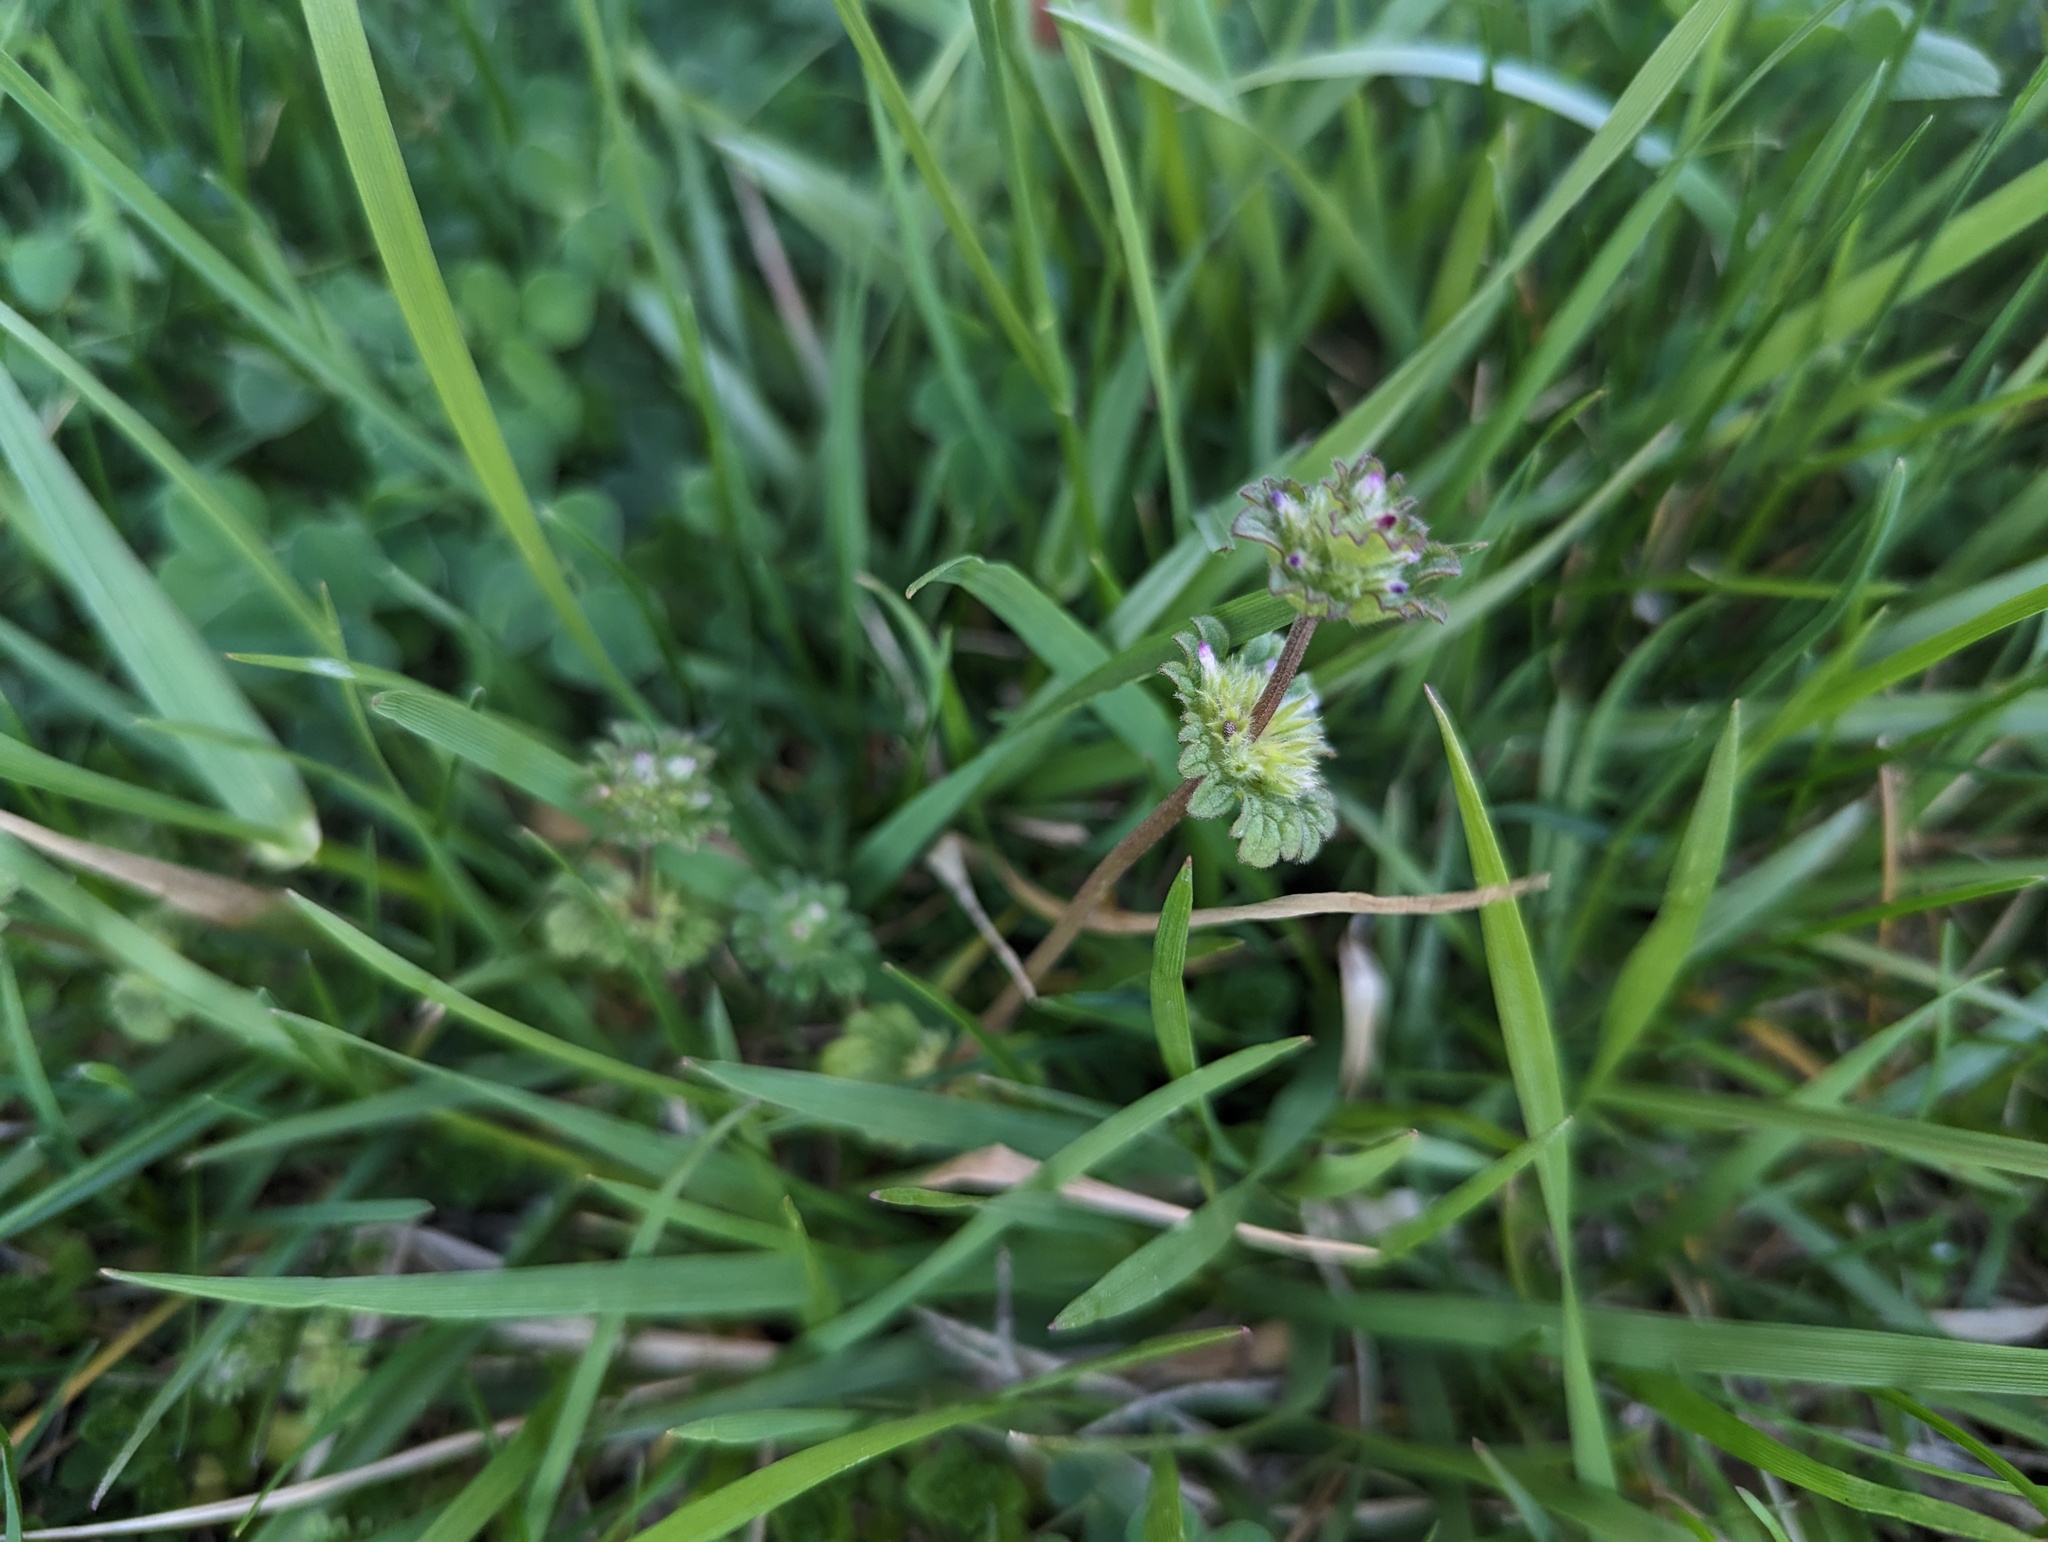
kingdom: Plantae
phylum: Tracheophyta
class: Magnoliopsida
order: Lamiales
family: Lamiaceae
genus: Lamium
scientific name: Lamium amplexicaule
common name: Henbit dead-nettle
